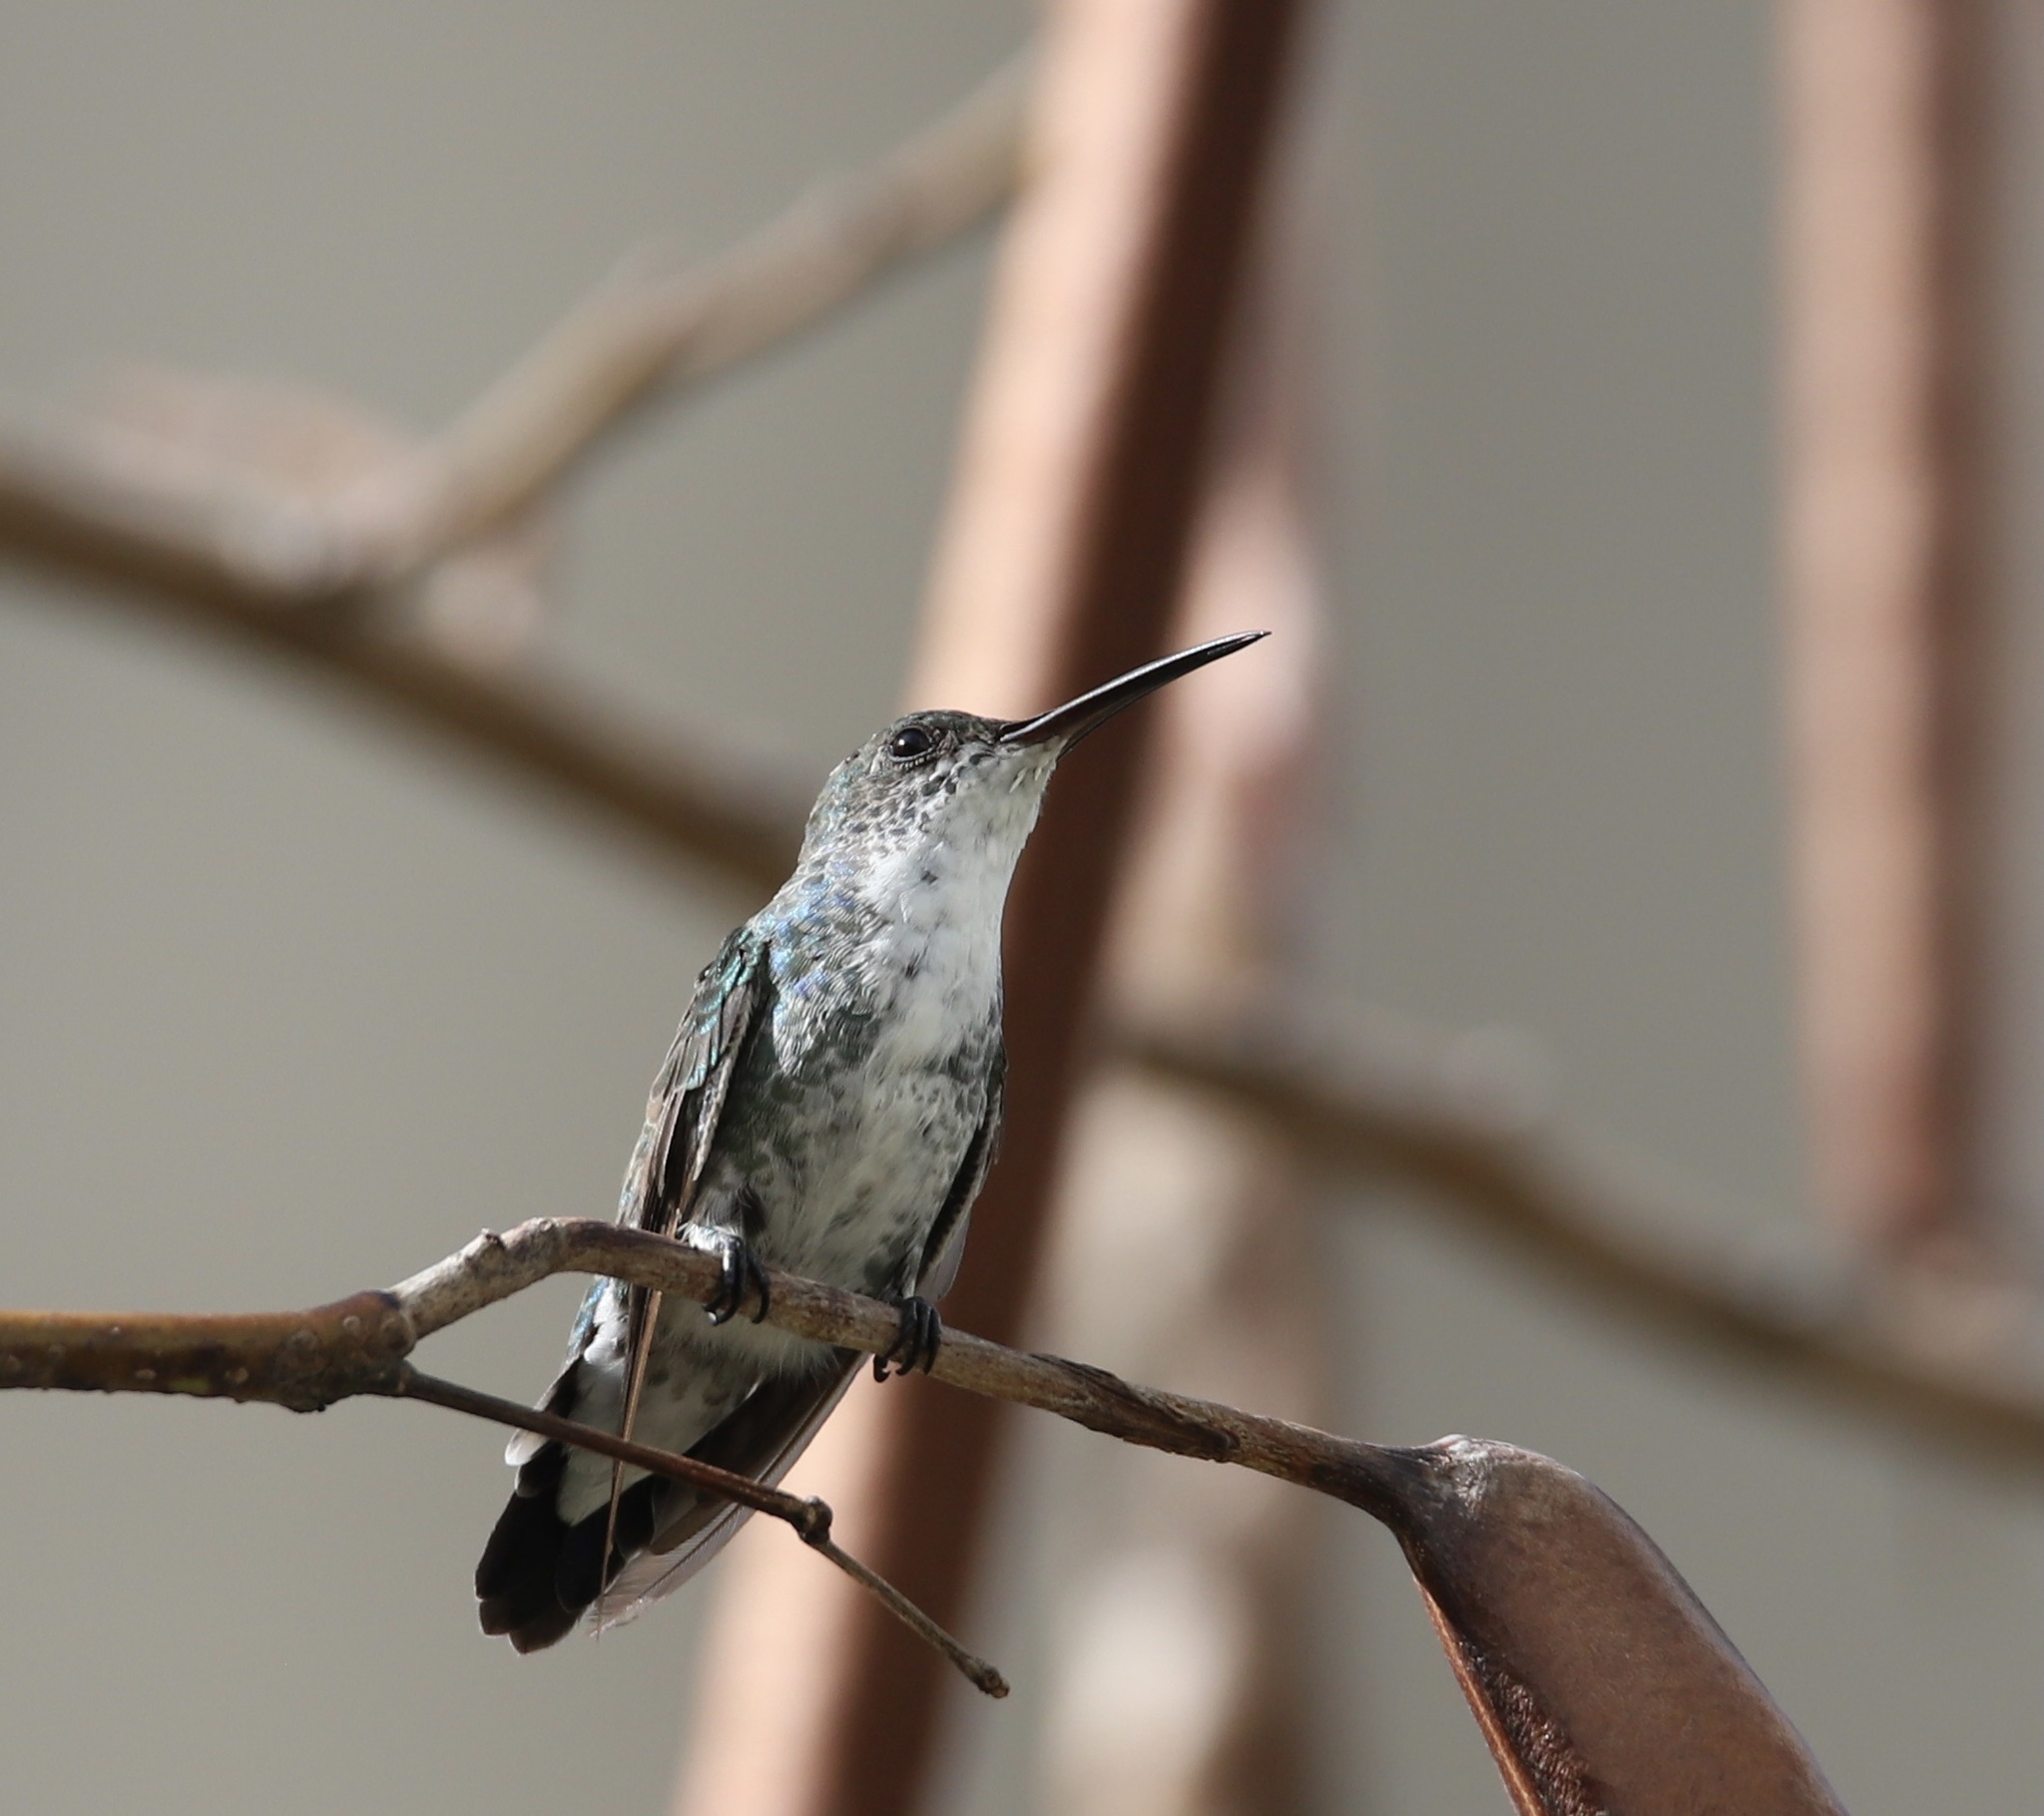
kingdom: Animalia
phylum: Chordata
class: Aves
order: Apodiformes
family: Trochilidae
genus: Chrysuronia
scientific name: Chrysuronia coeruleogularis
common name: Sapphire-throated hummingbird
